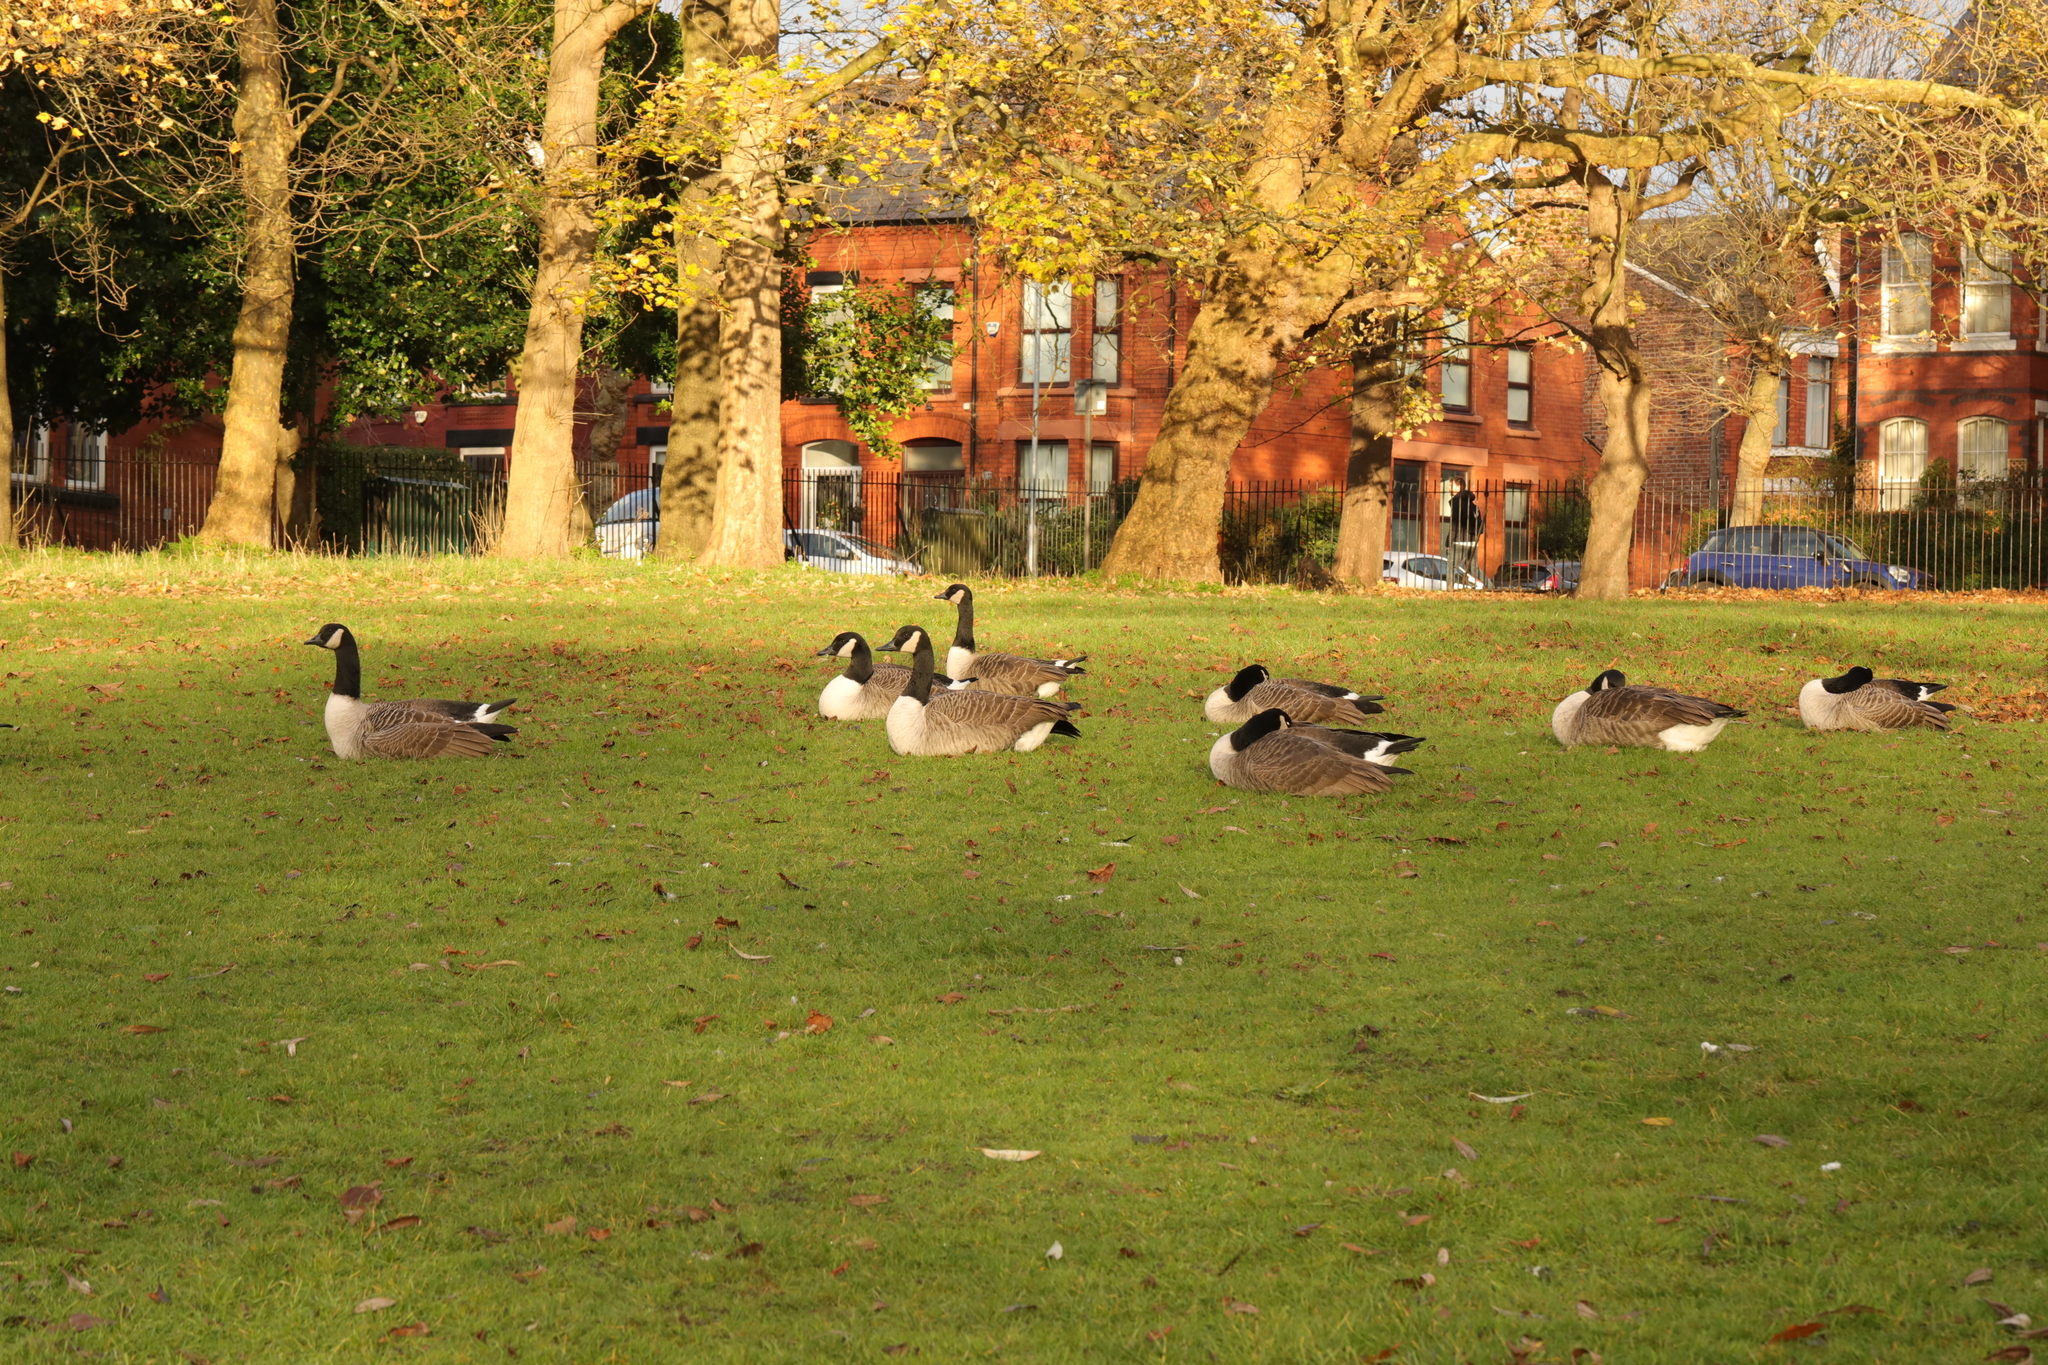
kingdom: Animalia
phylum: Chordata
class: Aves
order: Anseriformes
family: Anatidae
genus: Branta
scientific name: Branta canadensis
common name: Canada goose
